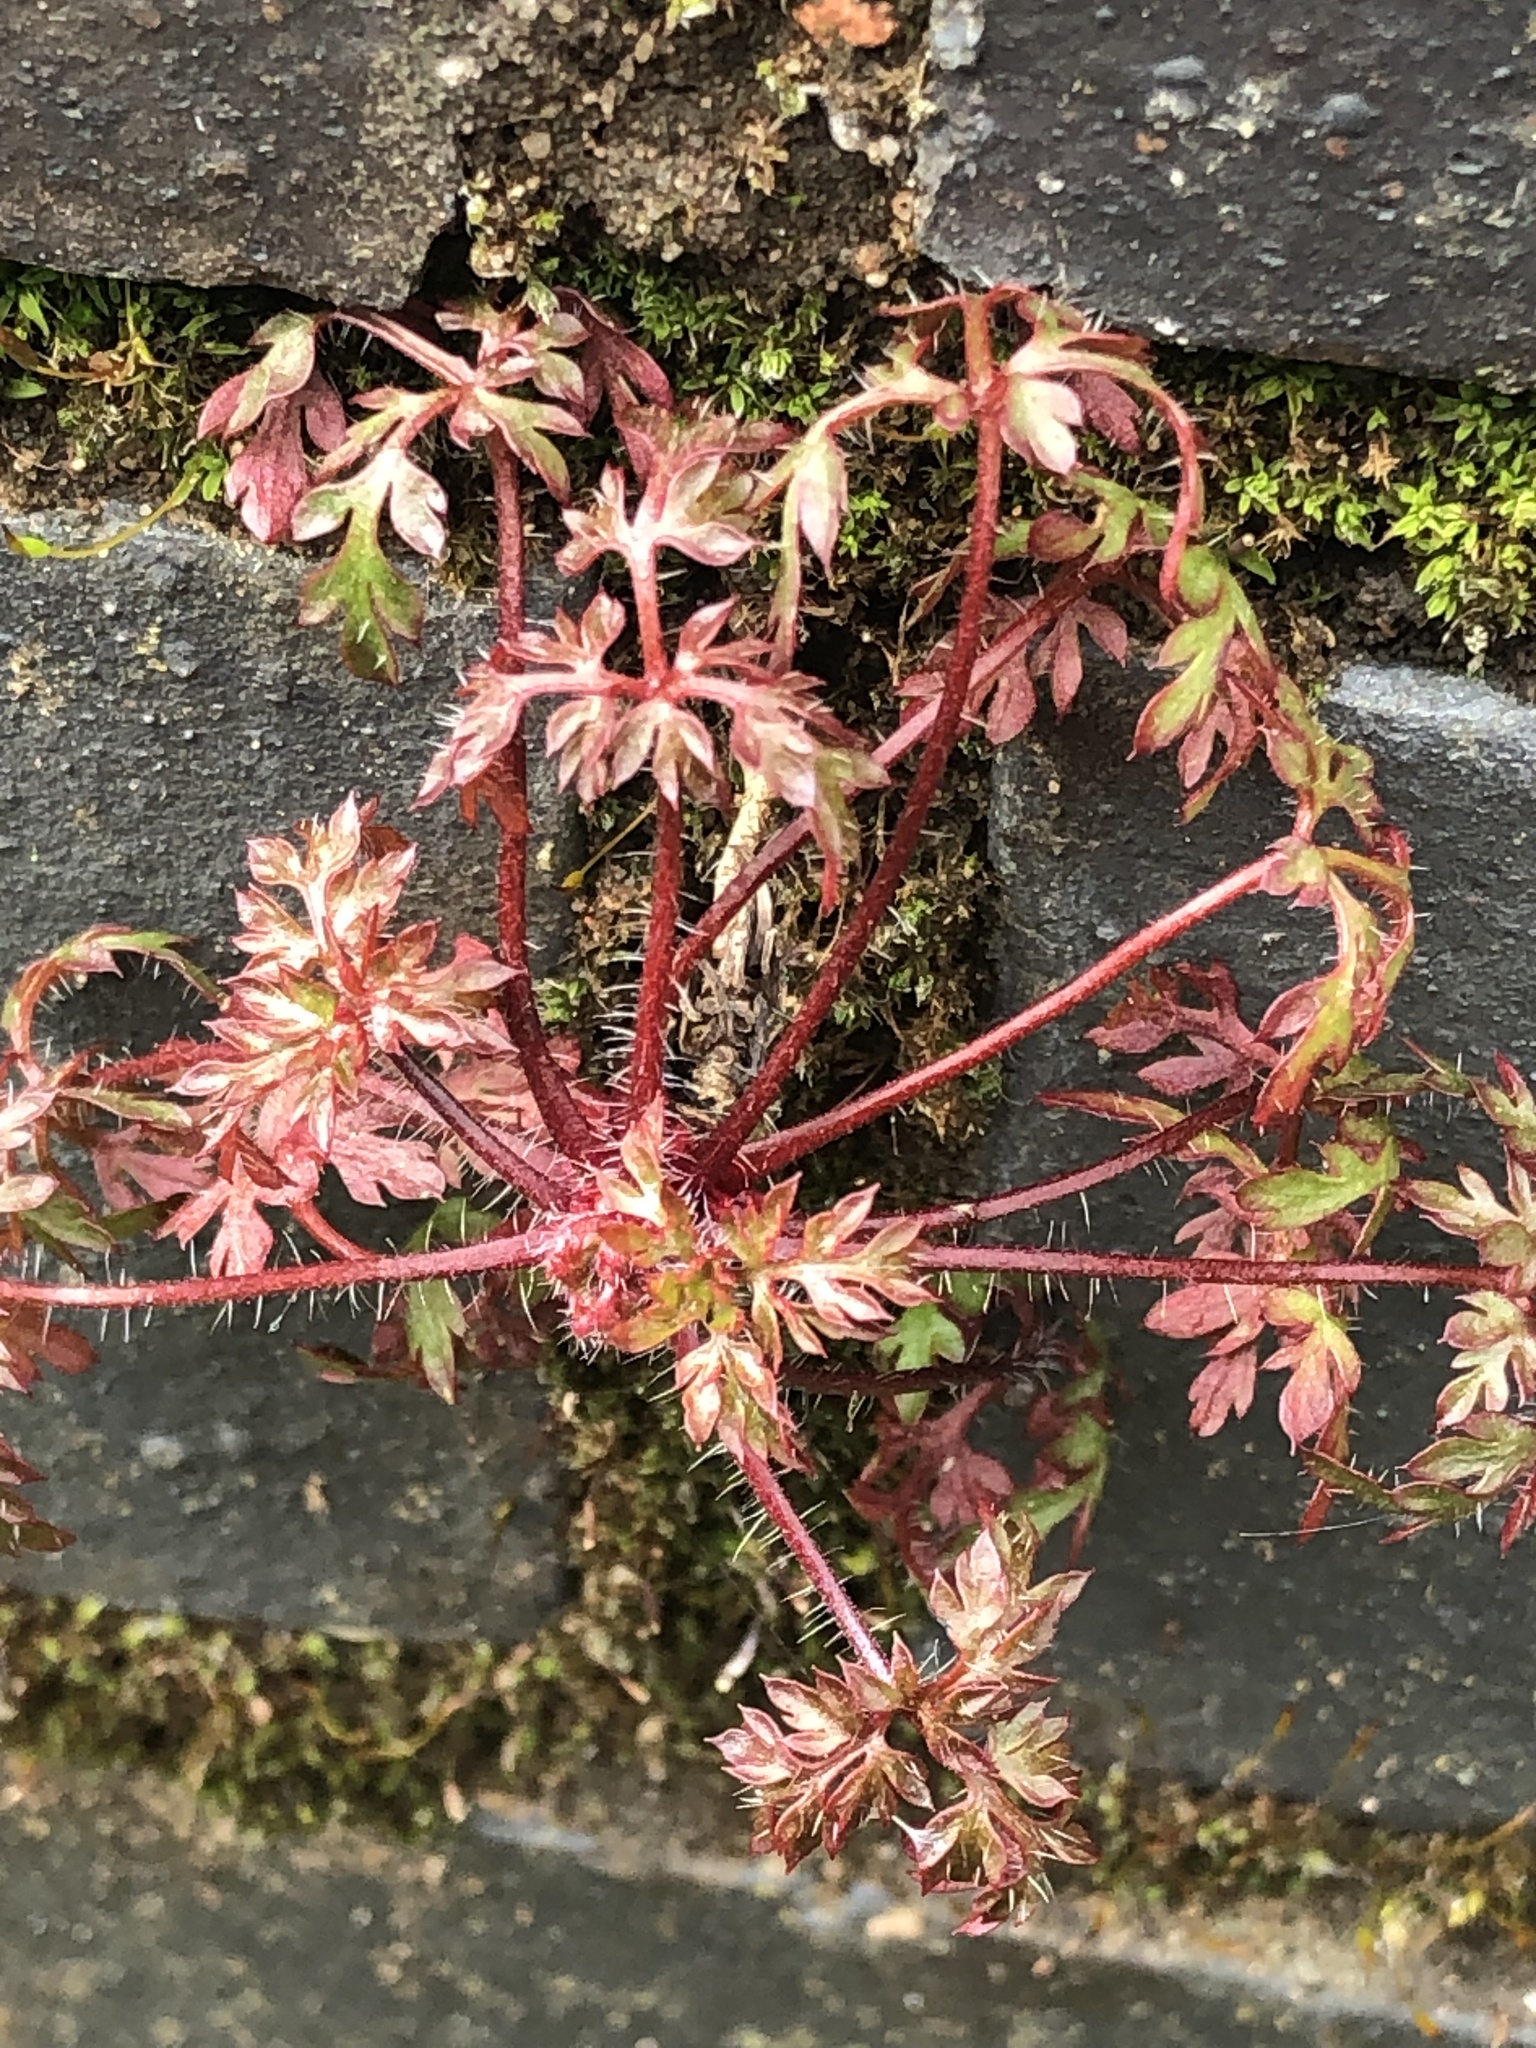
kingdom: Plantae
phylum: Tracheophyta
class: Magnoliopsida
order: Geraniales
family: Geraniaceae
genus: Geranium
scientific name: Geranium robertianum
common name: Herb-robert
